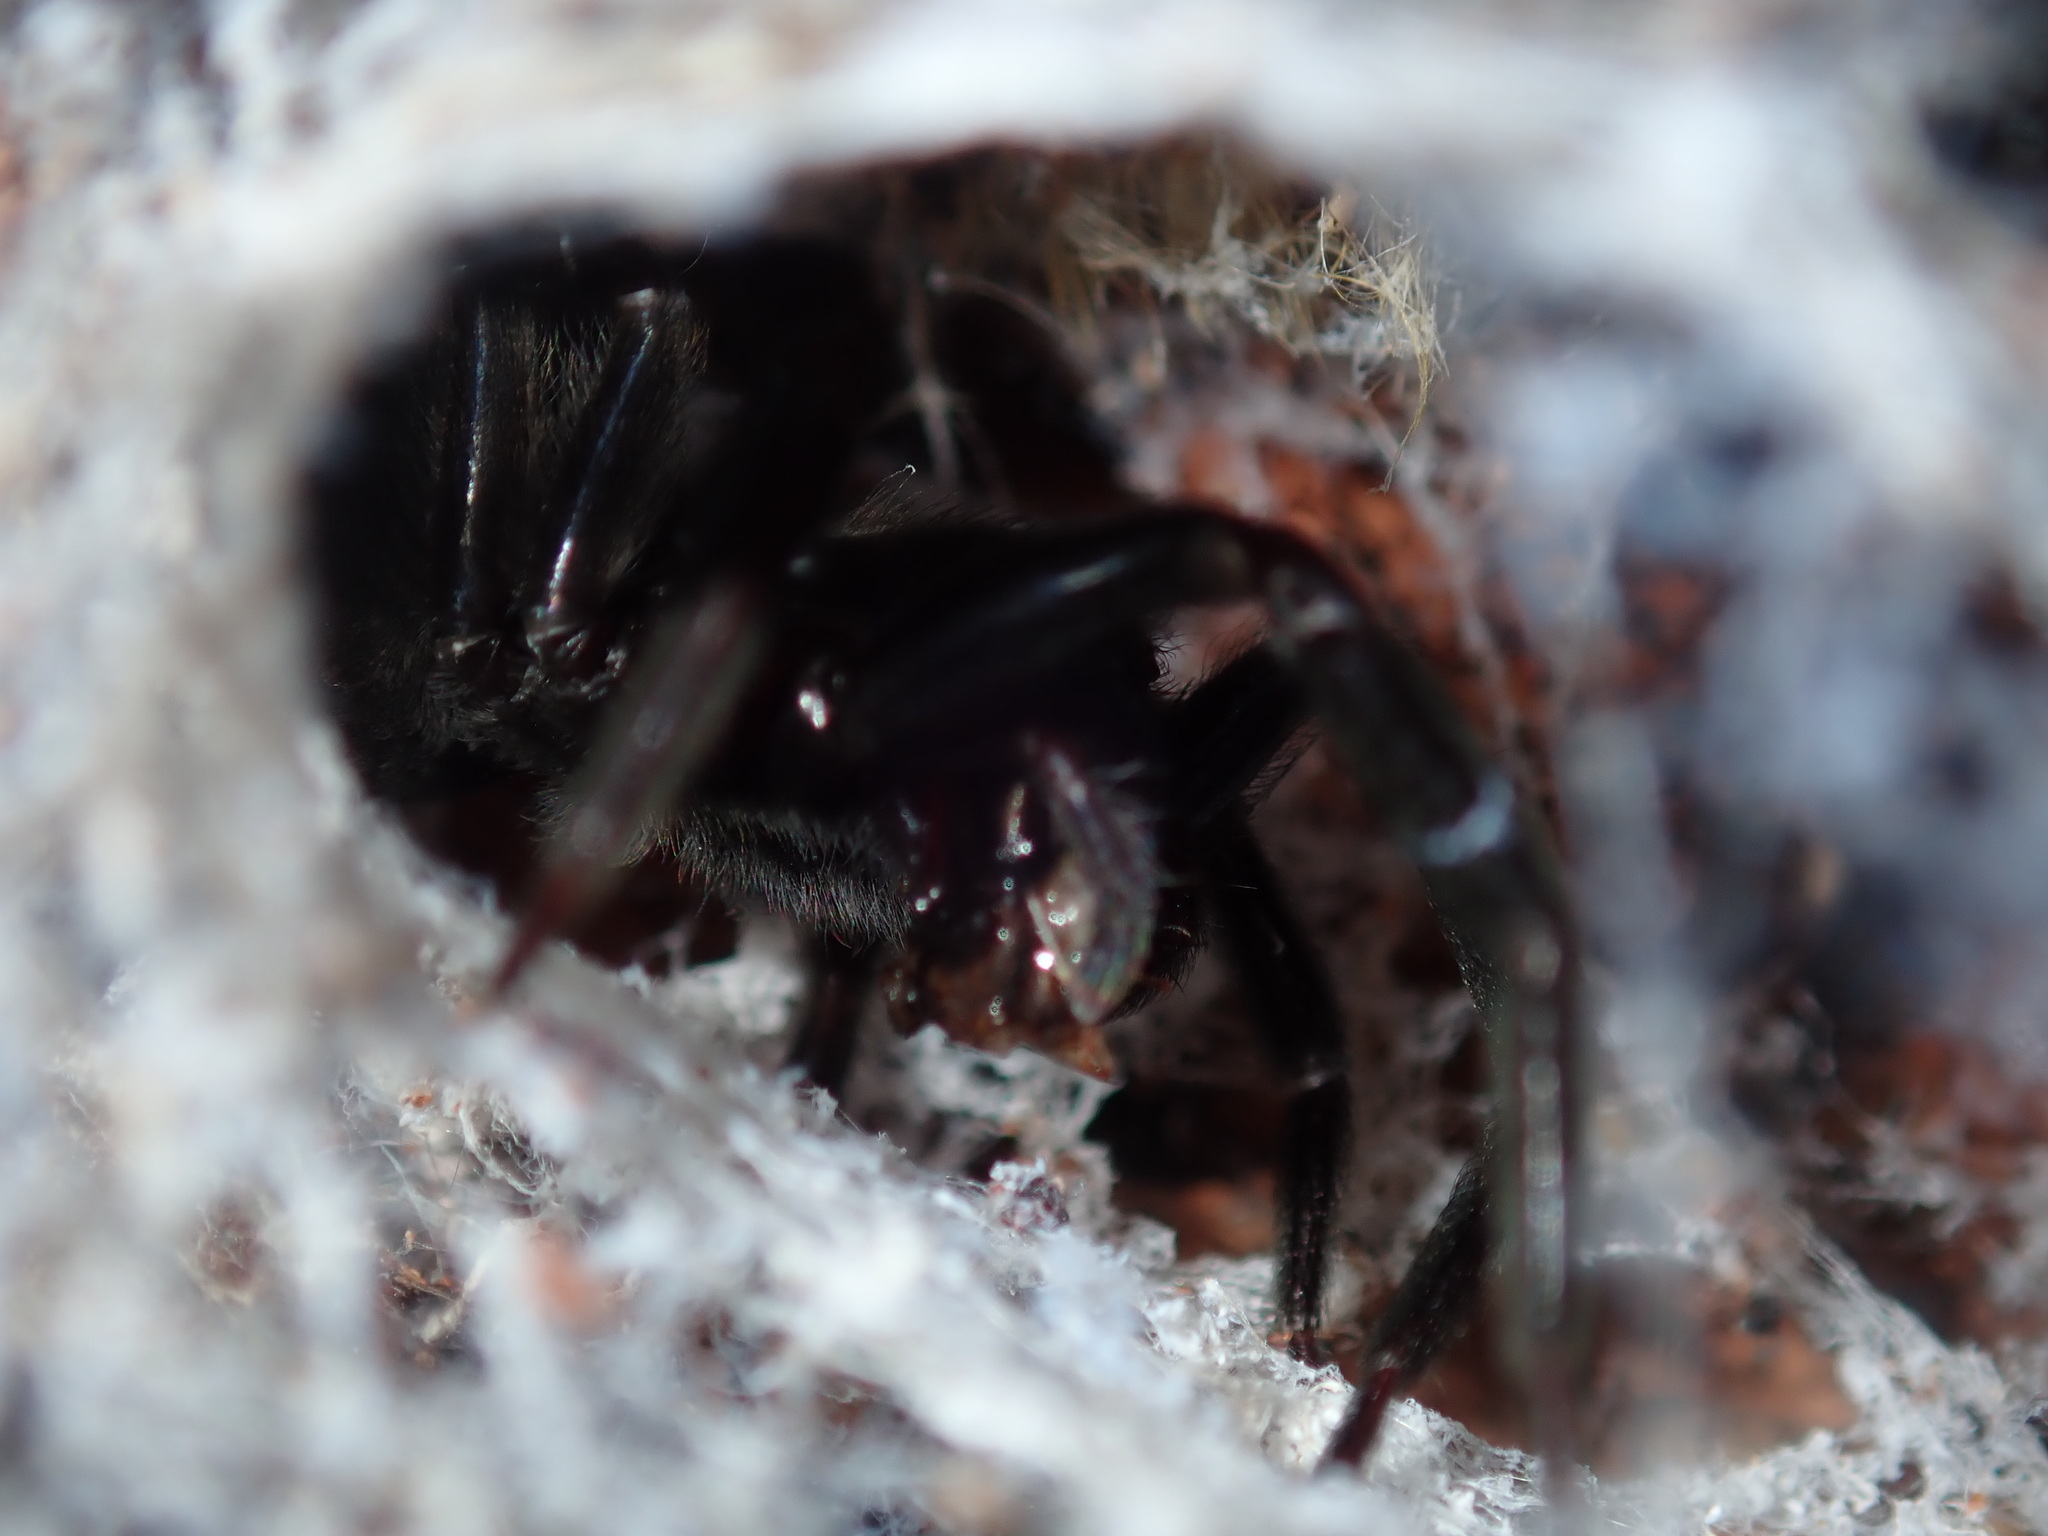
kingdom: Animalia
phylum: Arthropoda
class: Arachnida
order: Araneae
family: Desidae
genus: Badumna
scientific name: Badumna insignis
